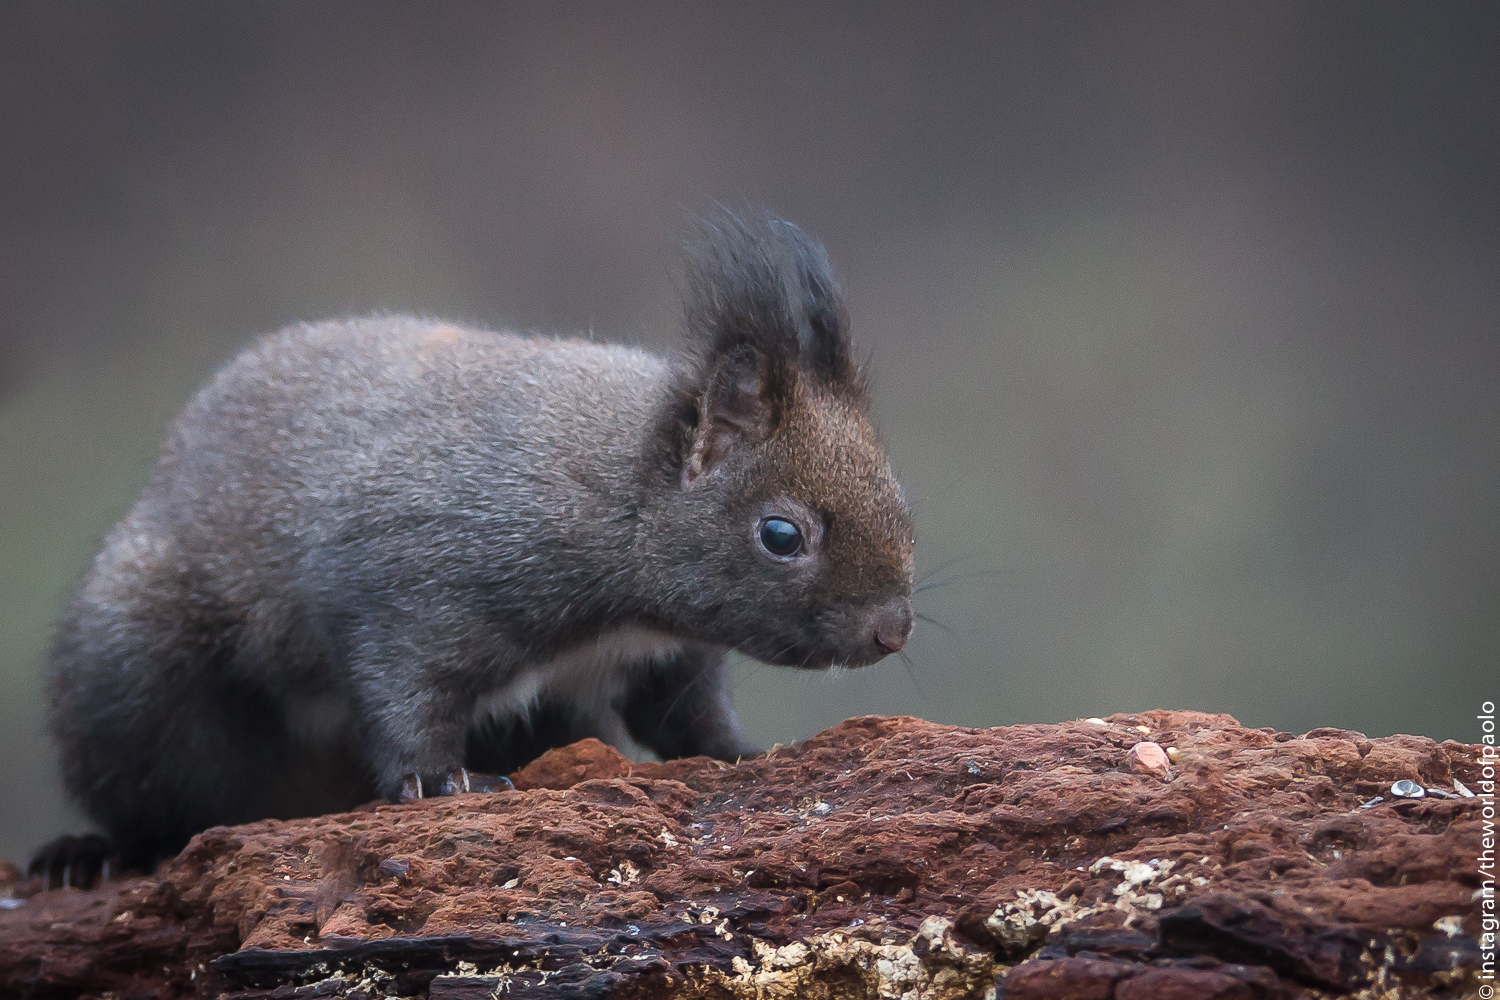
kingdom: Animalia
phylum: Chordata
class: Mammalia
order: Rodentia
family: Sciuridae
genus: Sciurus
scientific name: Sciurus vulgaris
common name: Eurasian red squirrel
